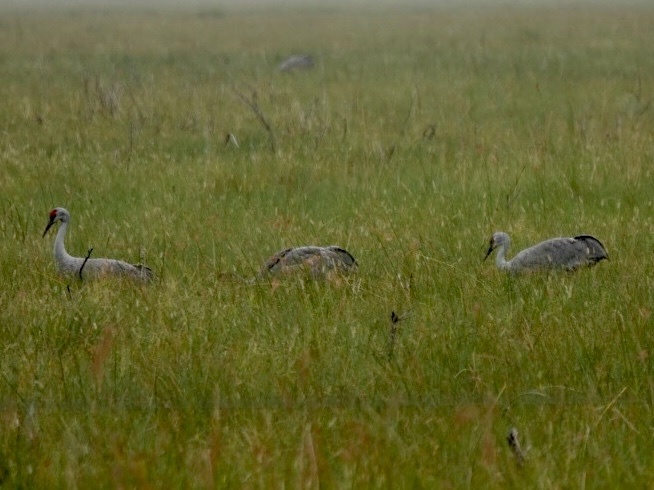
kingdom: Animalia
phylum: Chordata
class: Aves
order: Gruiformes
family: Gruidae
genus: Grus
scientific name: Grus canadensis
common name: Sandhill crane
